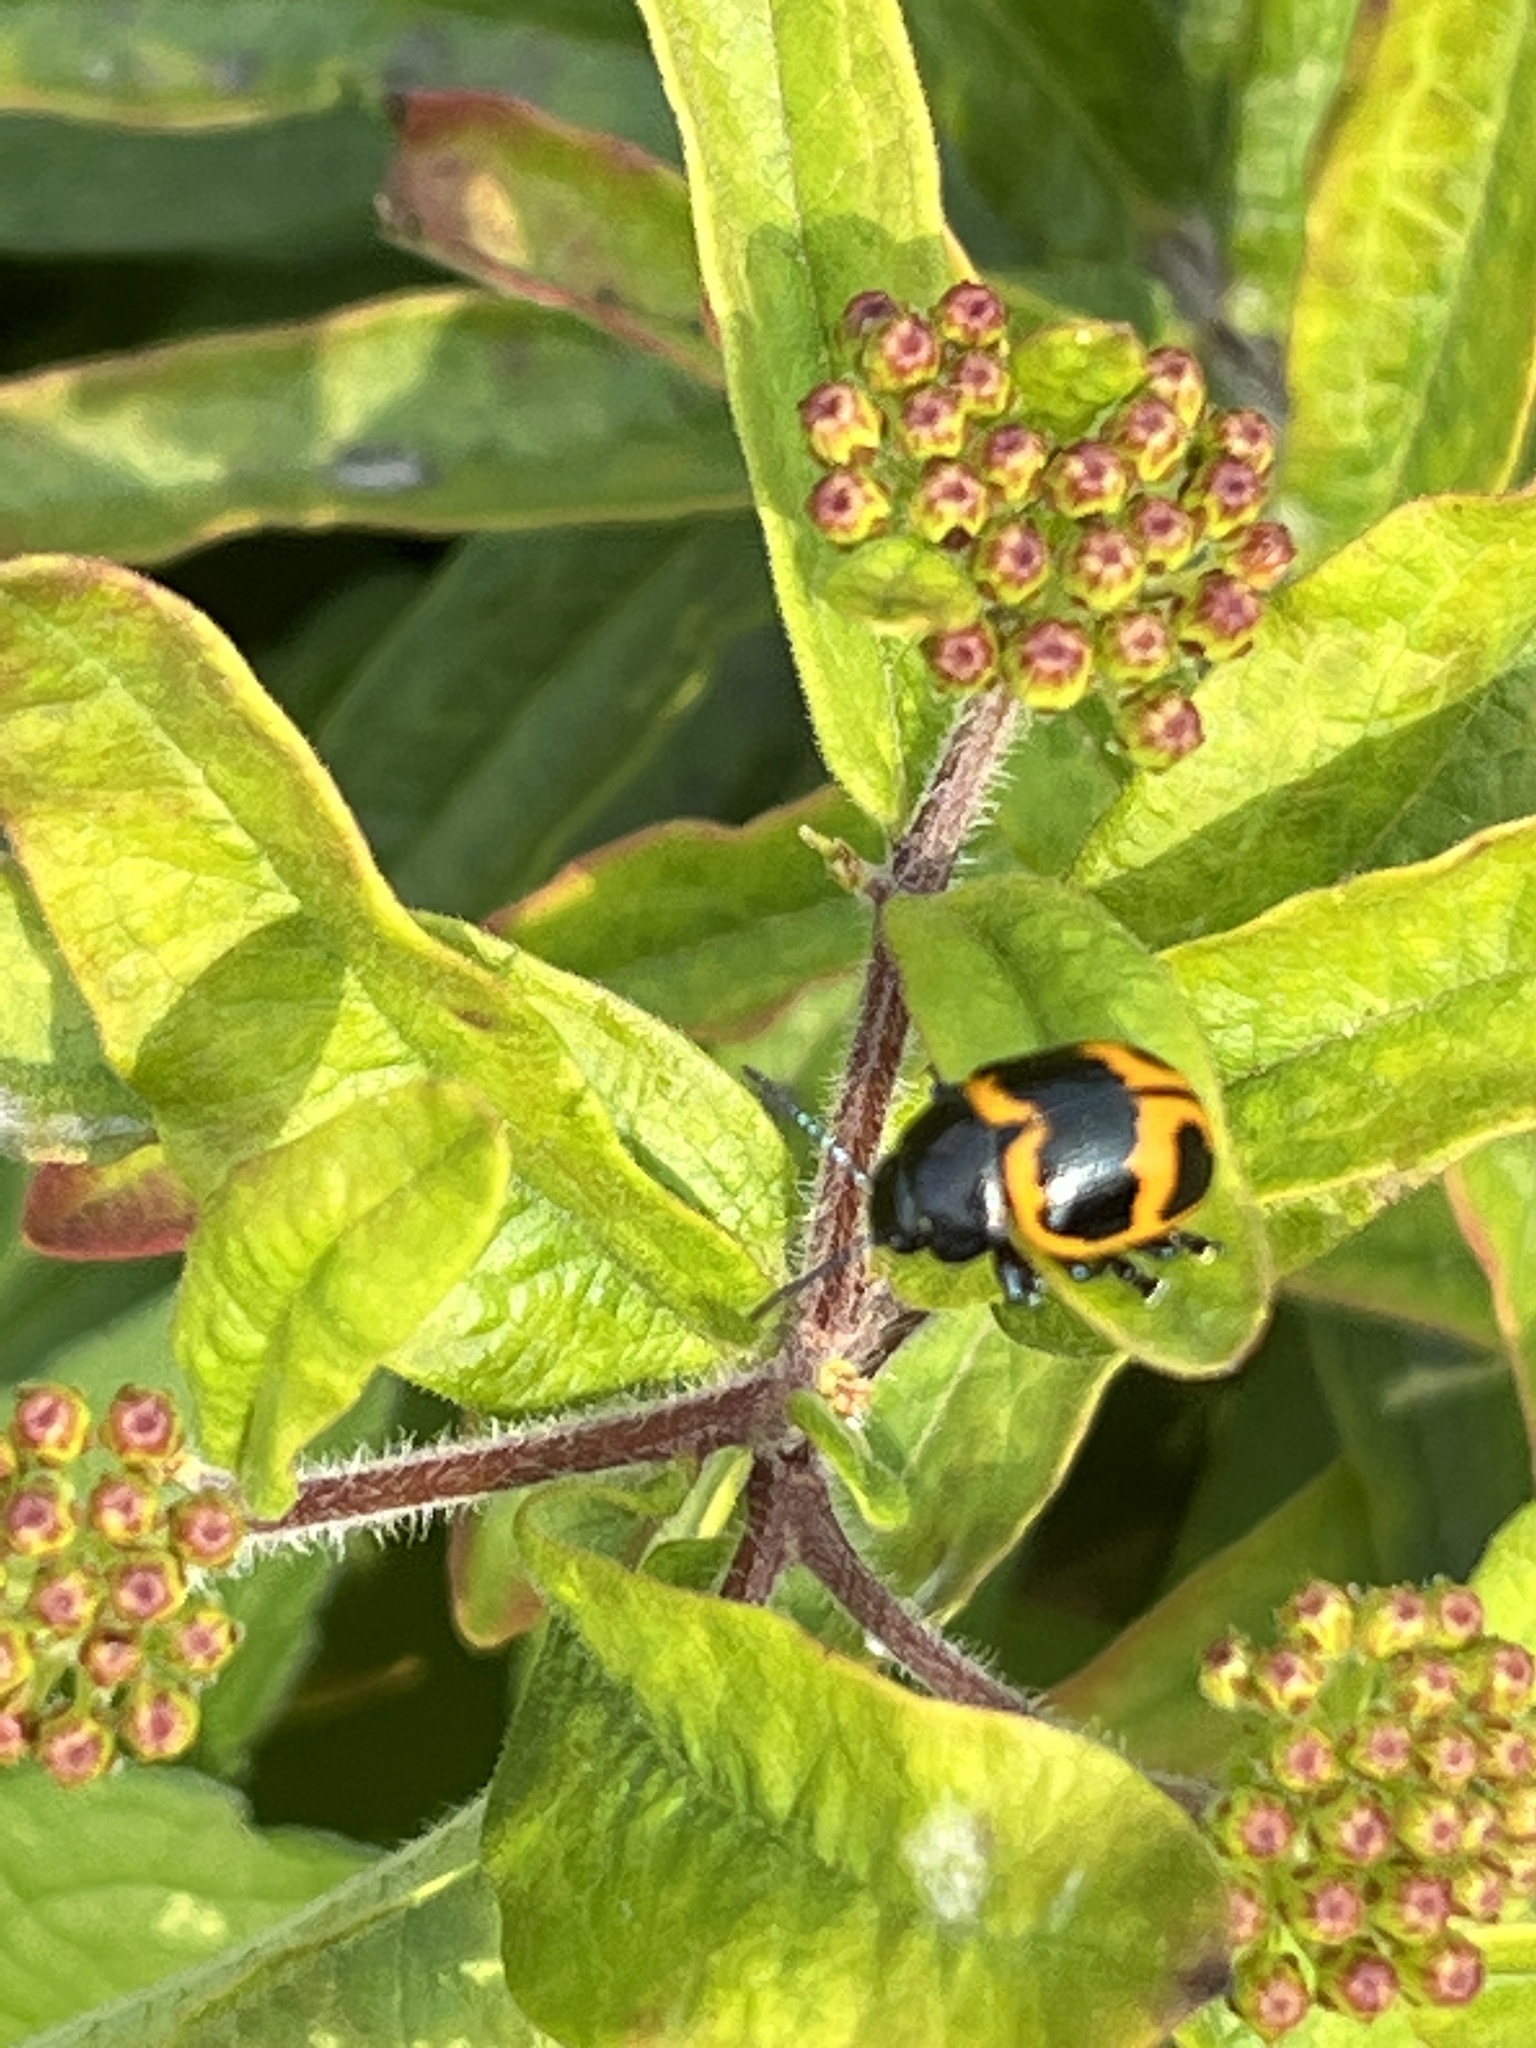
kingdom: Animalia
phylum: Arthropoda
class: Insecta
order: Coleoptera
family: Chrysomelidae
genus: Labidomera
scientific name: Labidomera clivicollis
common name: Swamp milkweed leaf beetle
